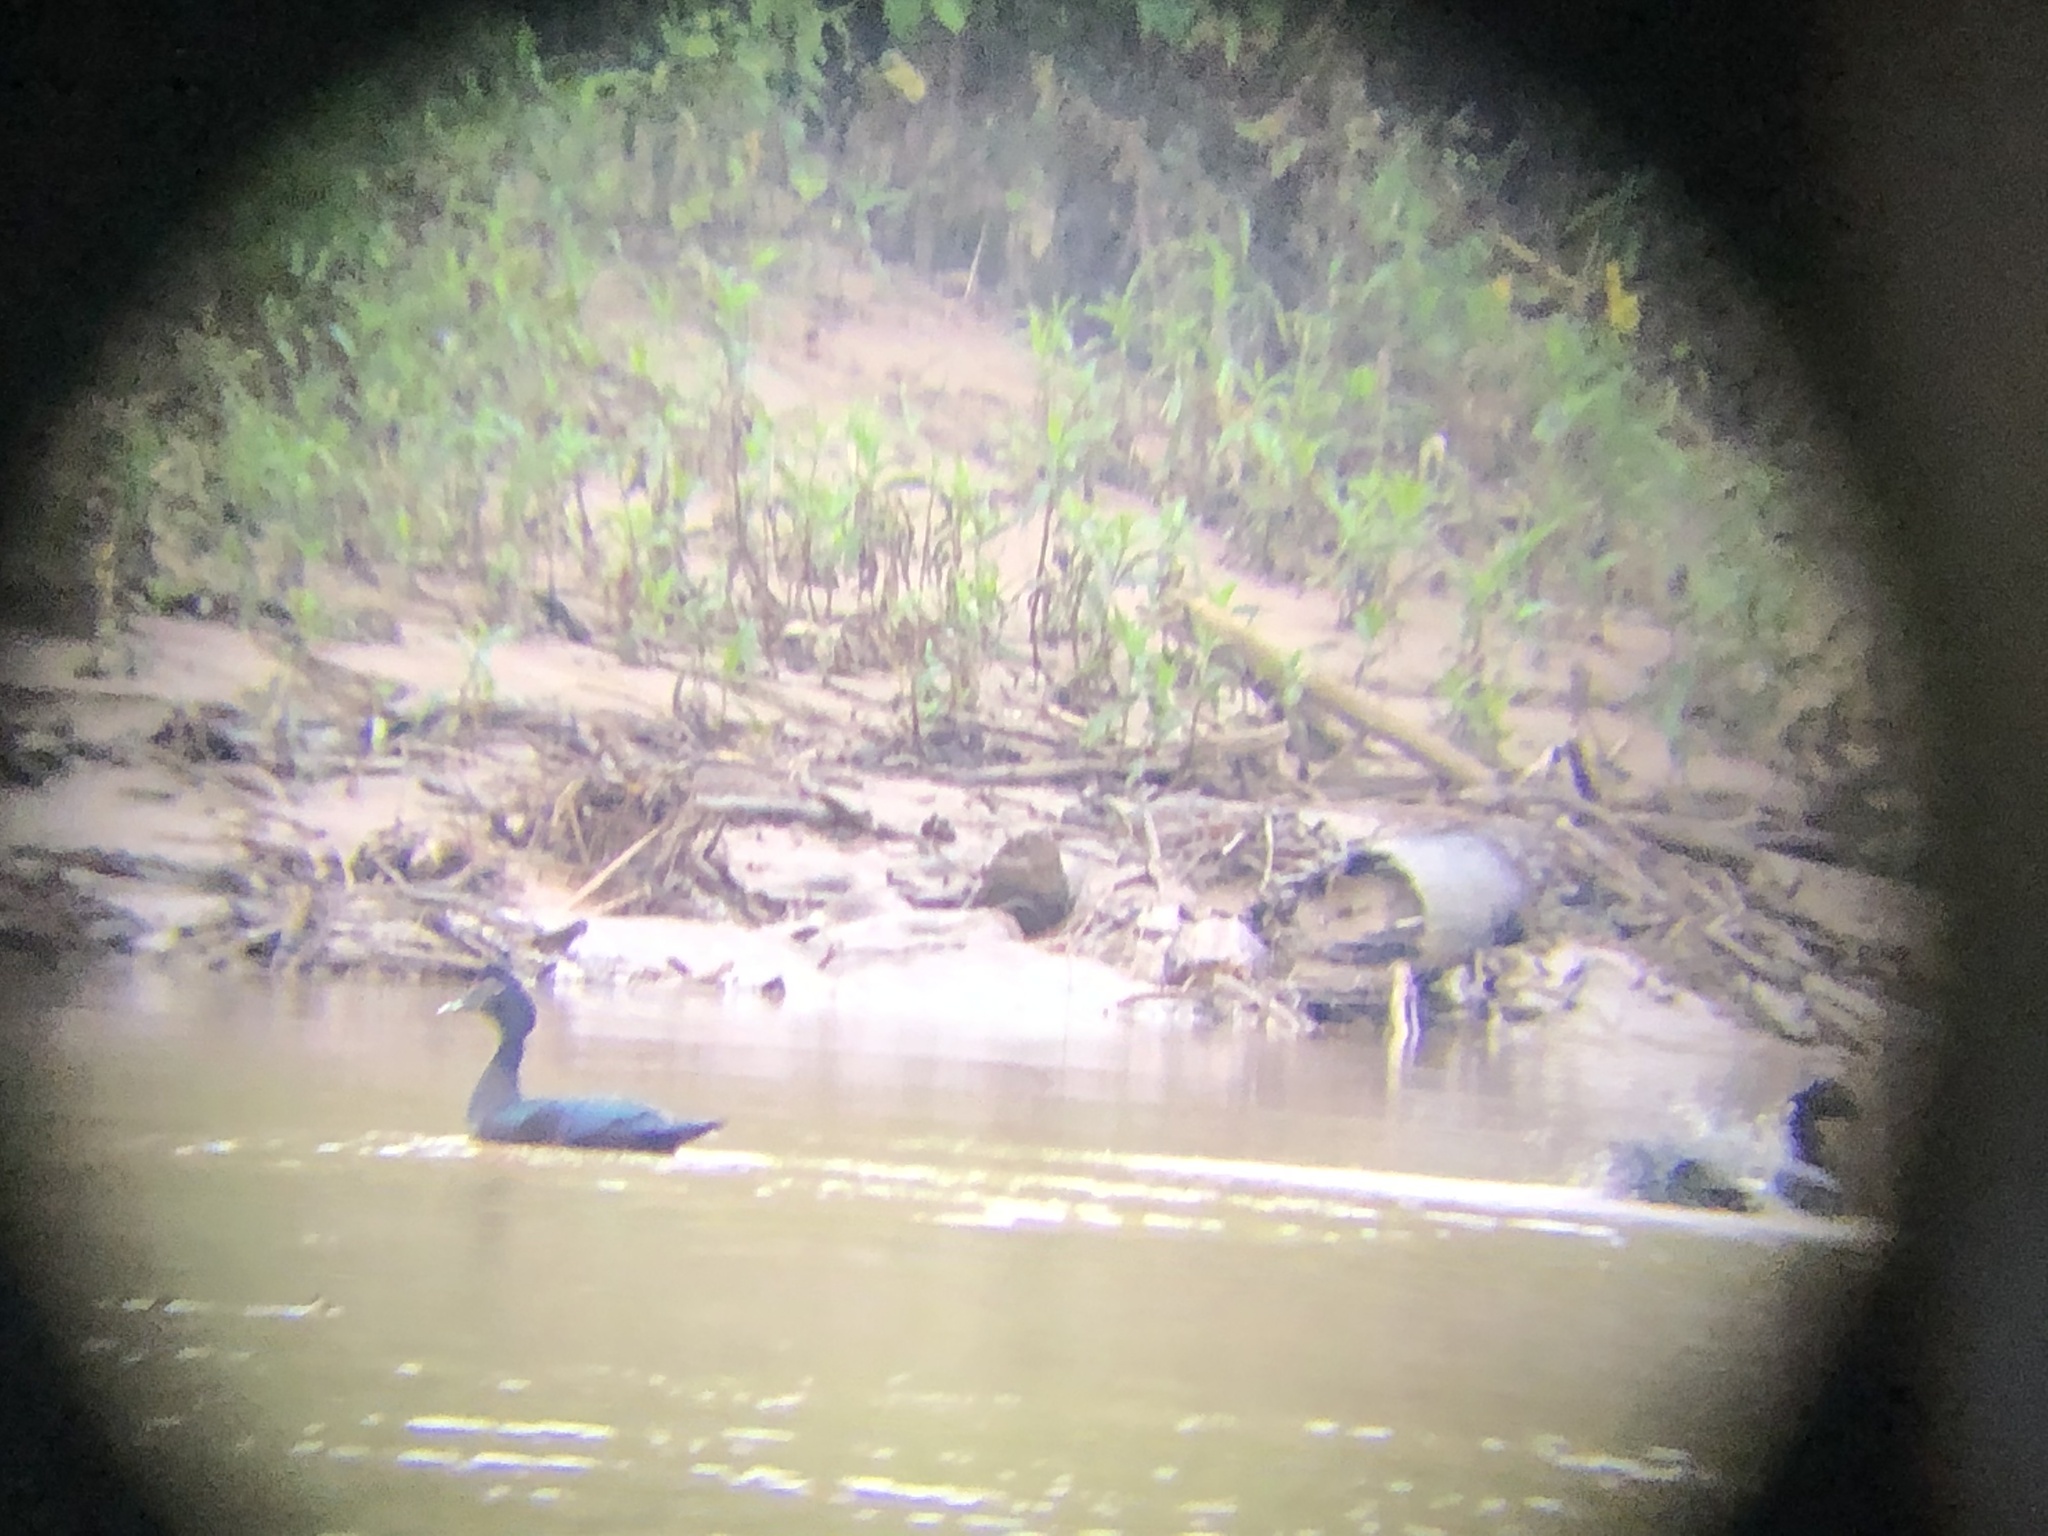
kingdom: Animalia
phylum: Chordata
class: Aves
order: Anseriformes
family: Anatidae
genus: Cairina
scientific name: Cairina moschata
